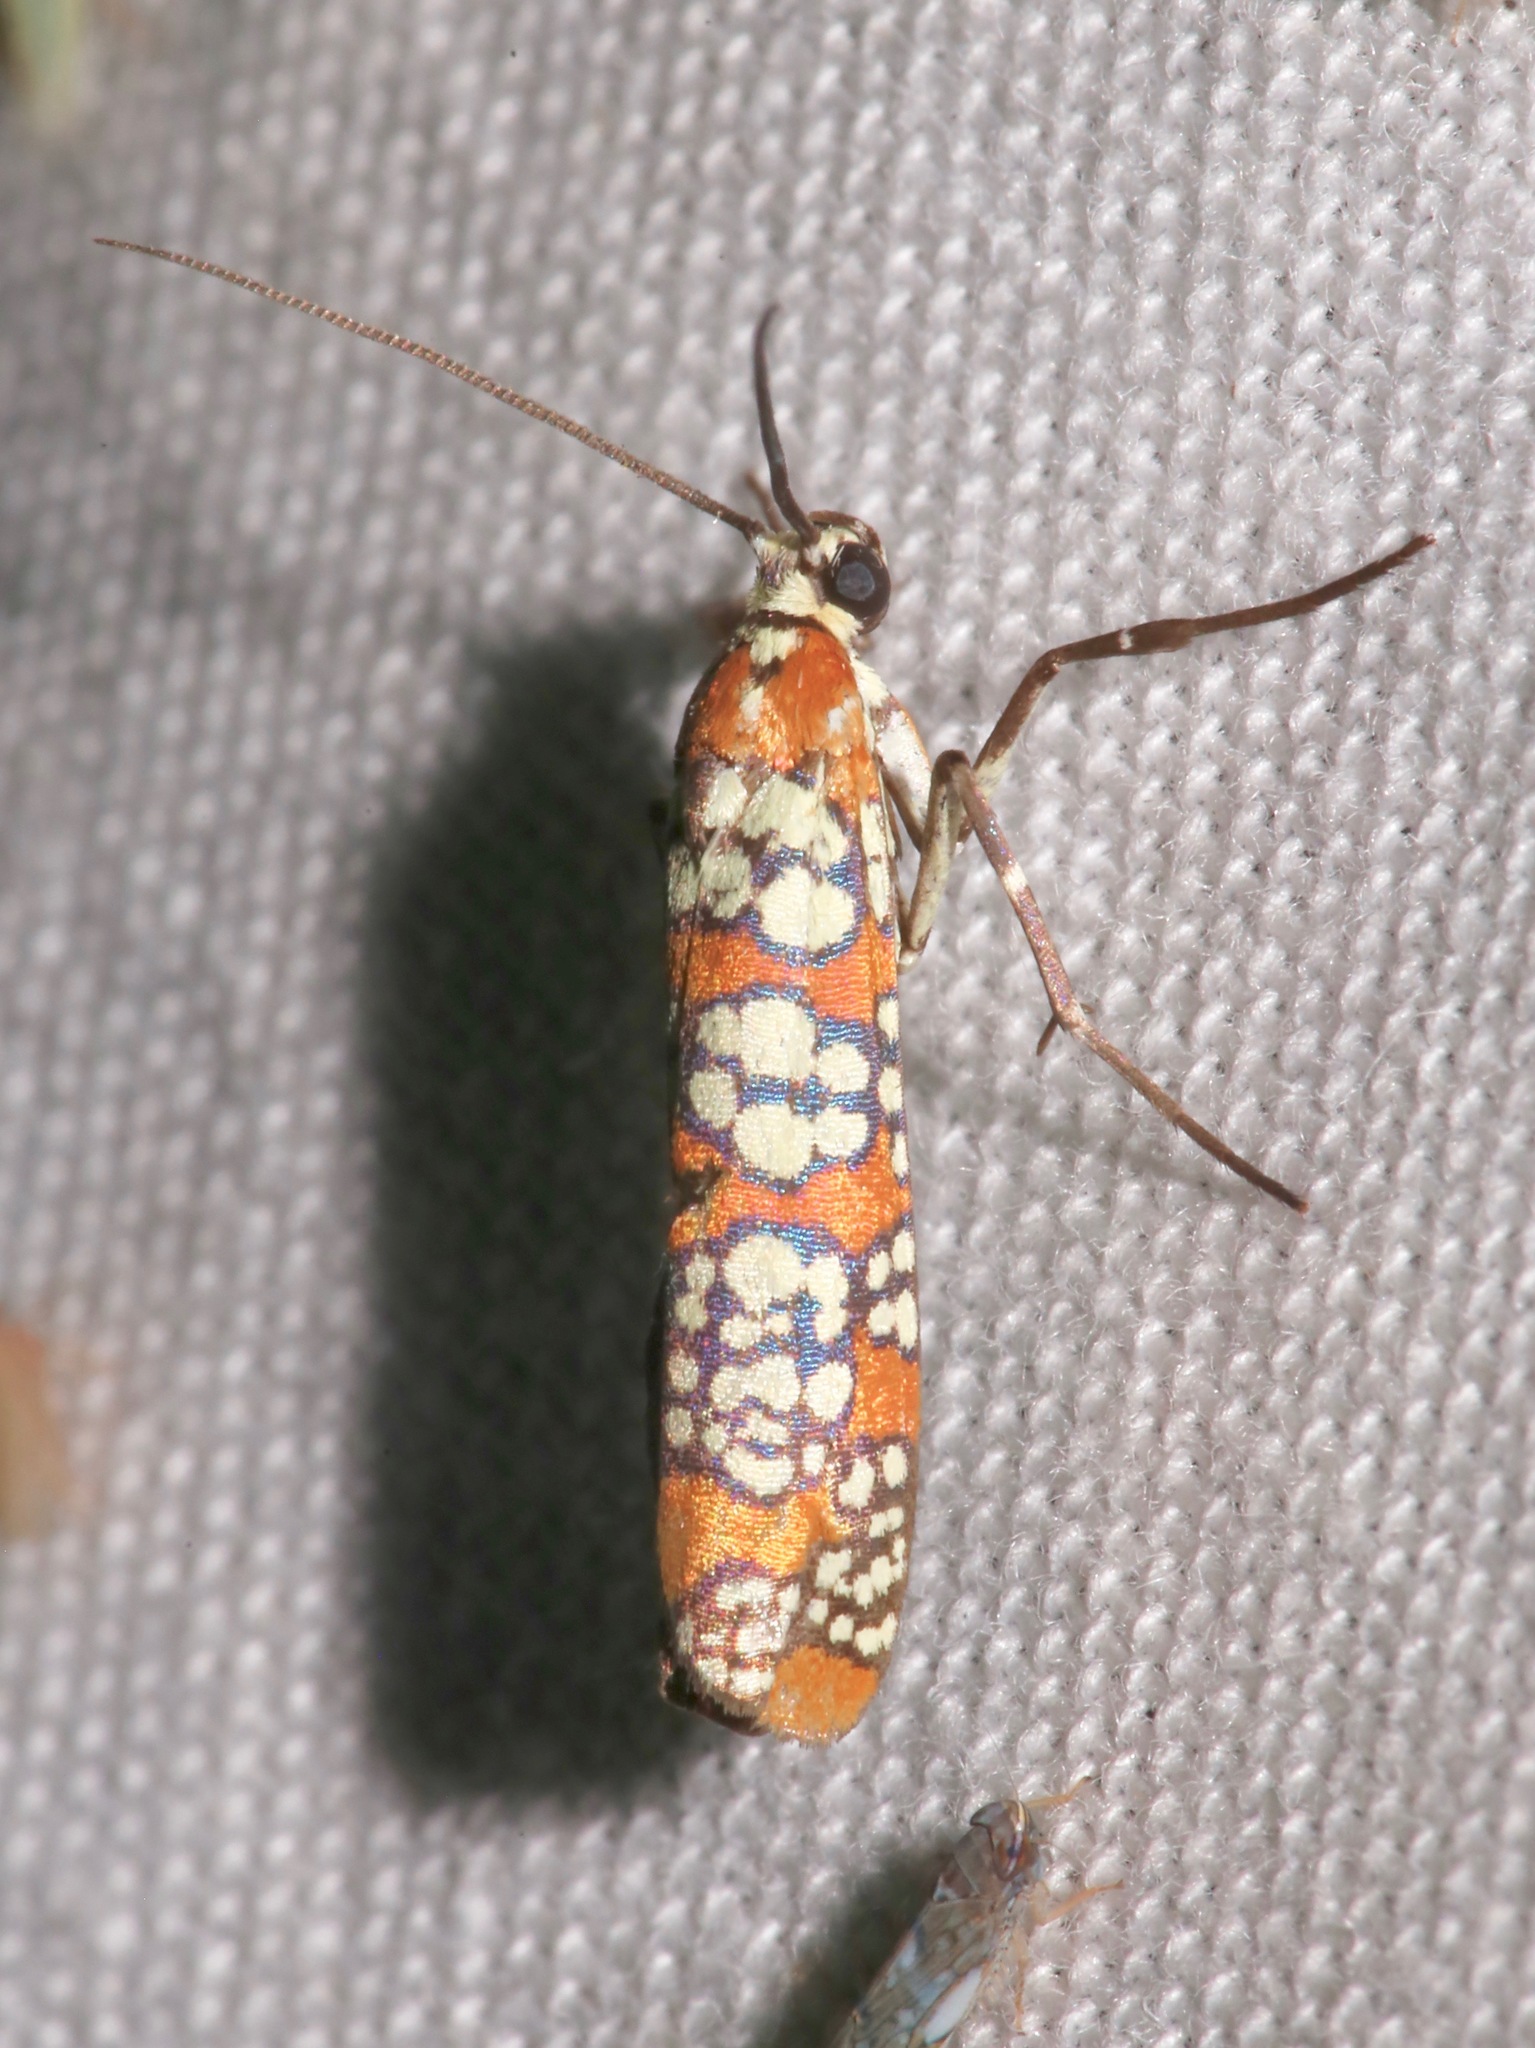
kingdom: Animalia
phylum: Arthropoda
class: Insecta
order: Lepidoptera
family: Attevidae
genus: Atteva
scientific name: Atteva punctella
